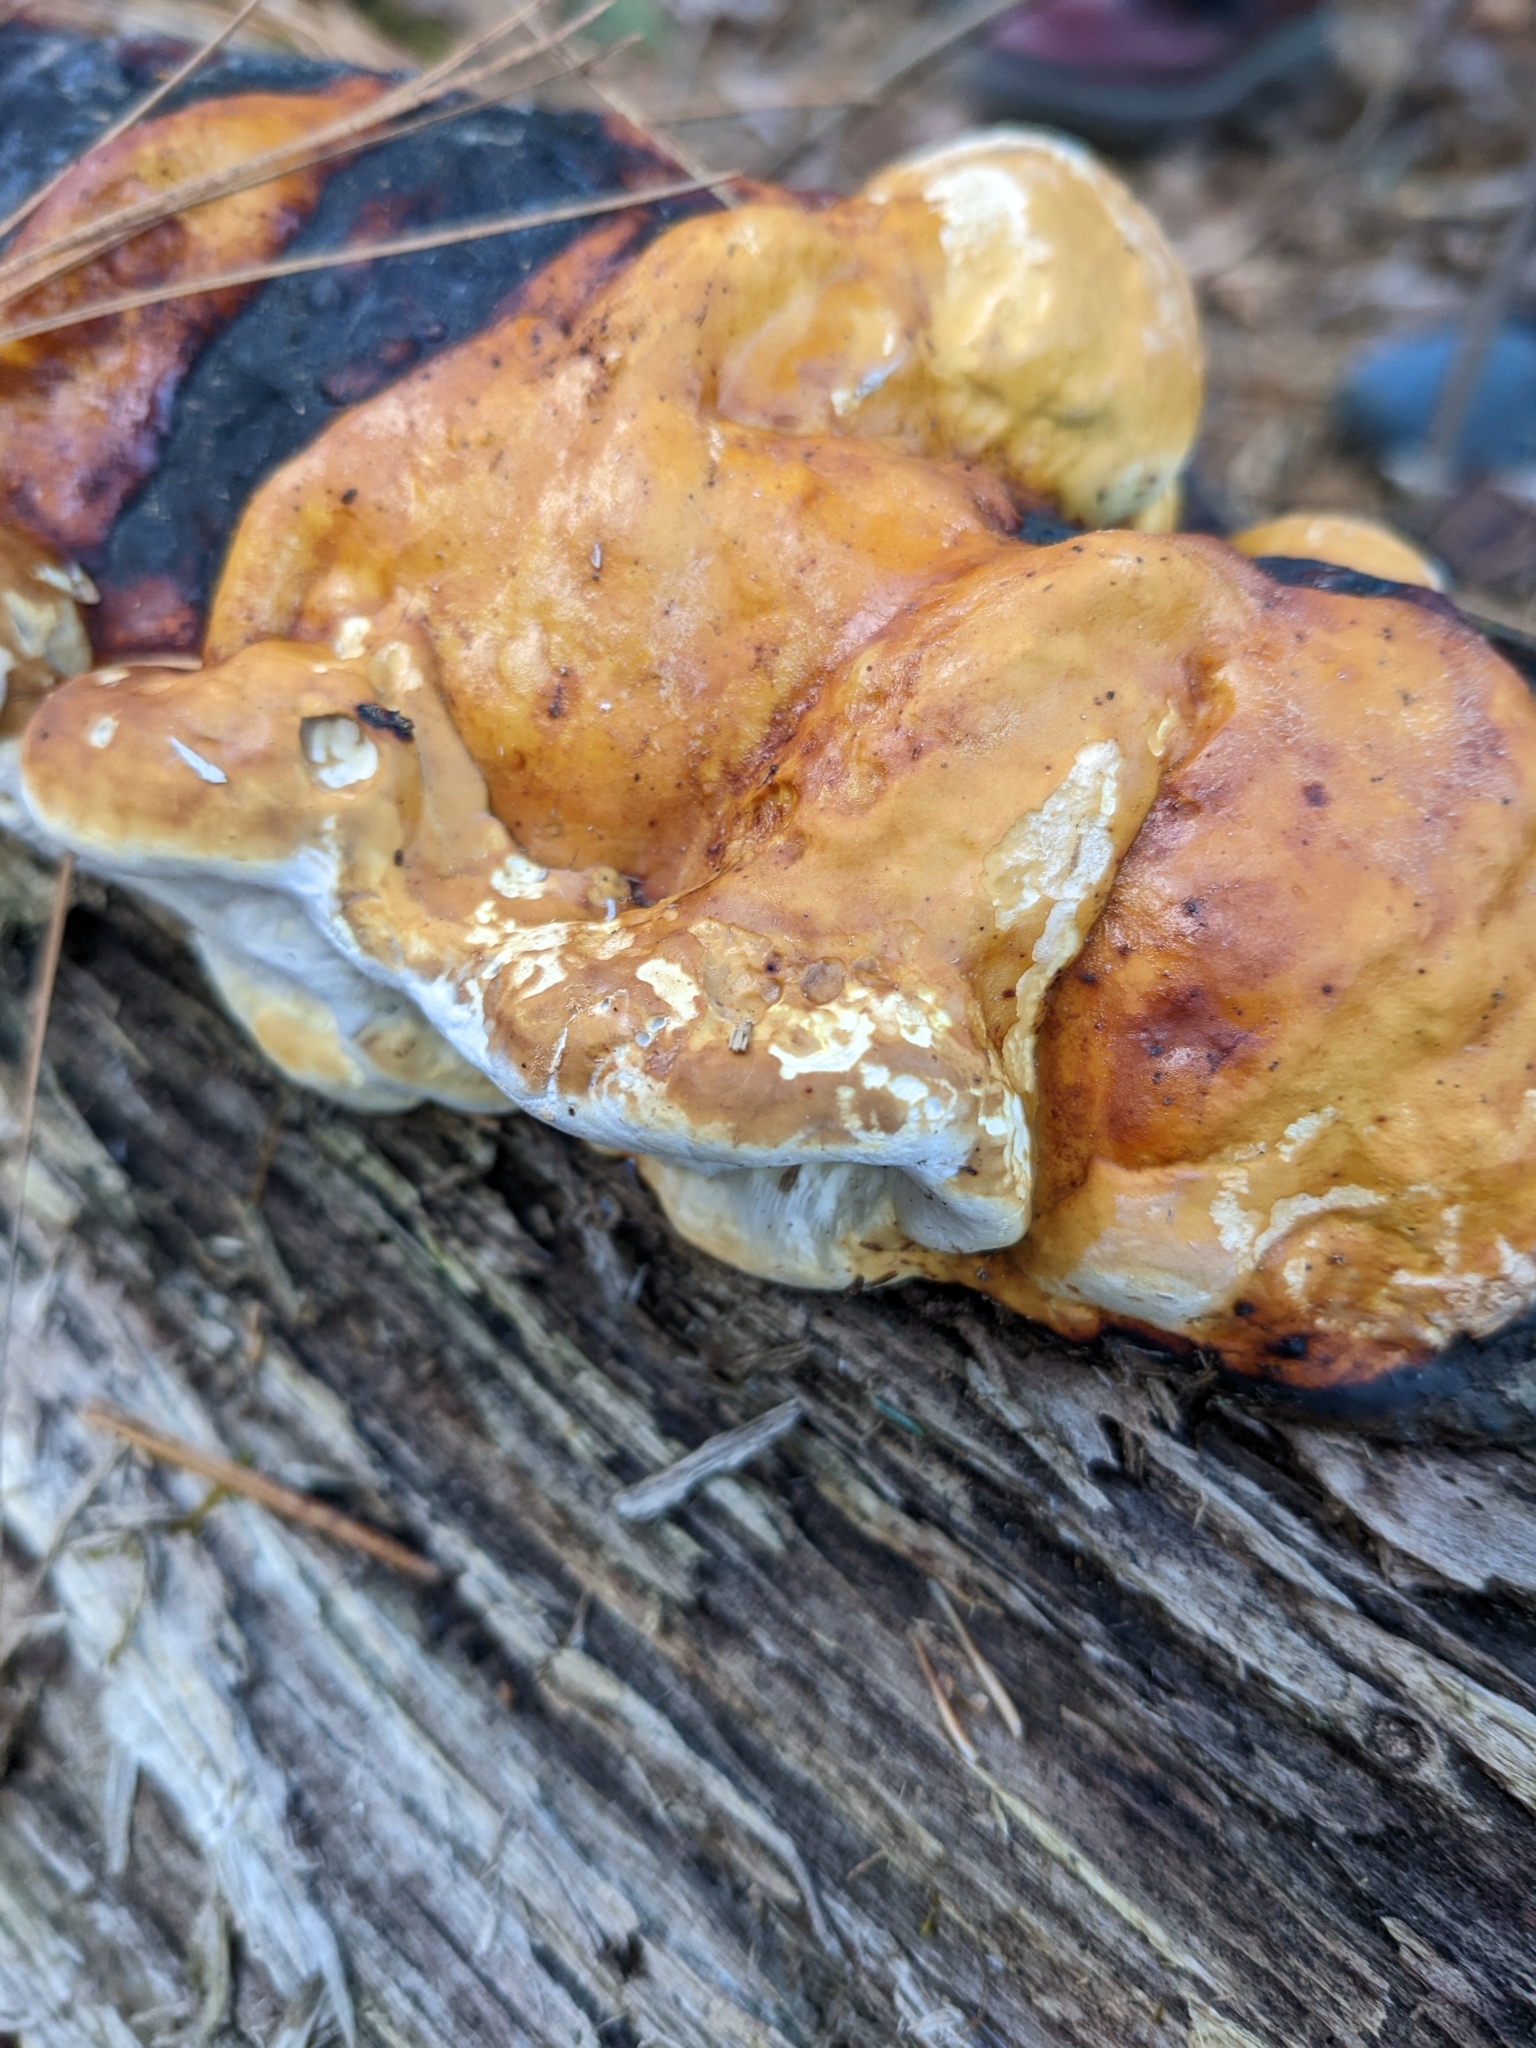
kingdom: Fungi
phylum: Basidiomycota
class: Agaricomycetes
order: Polyporales
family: Fomitopsidaceae
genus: Fomitopsis
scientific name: Fomitopsis mounceae
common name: Northern red belt
